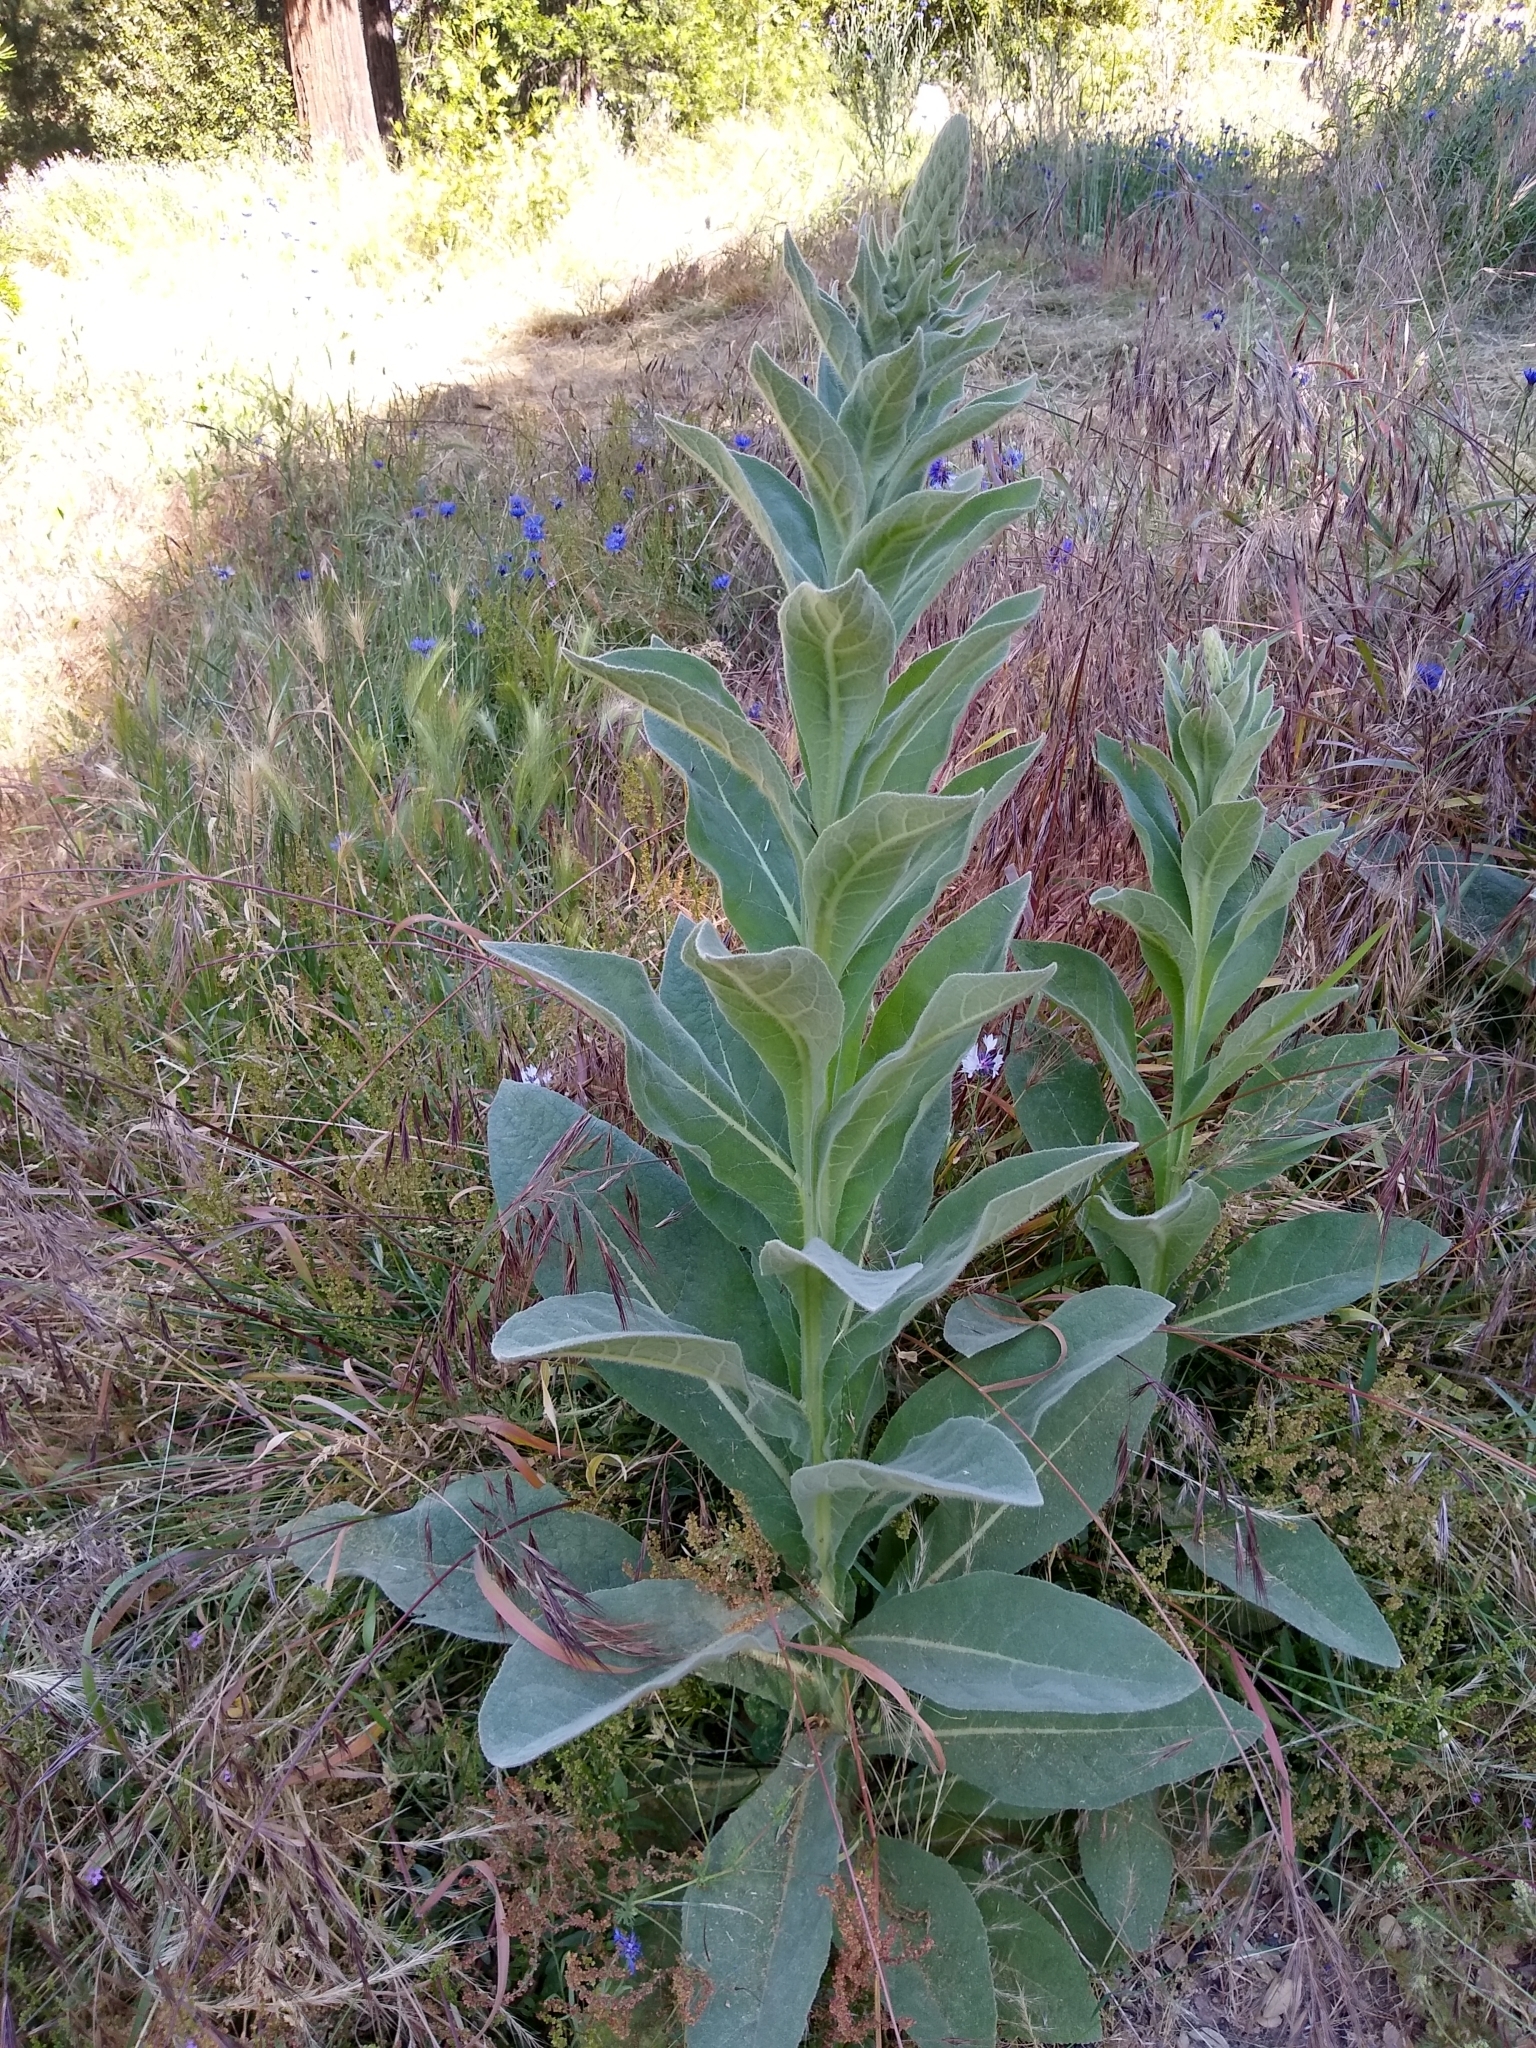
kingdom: Plantae
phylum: Tracheophyta
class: Magnoliopsida
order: Lamiales
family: Scrophulariaceae
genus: Verbascum
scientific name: Verbascum thapsus
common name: Common mullein
